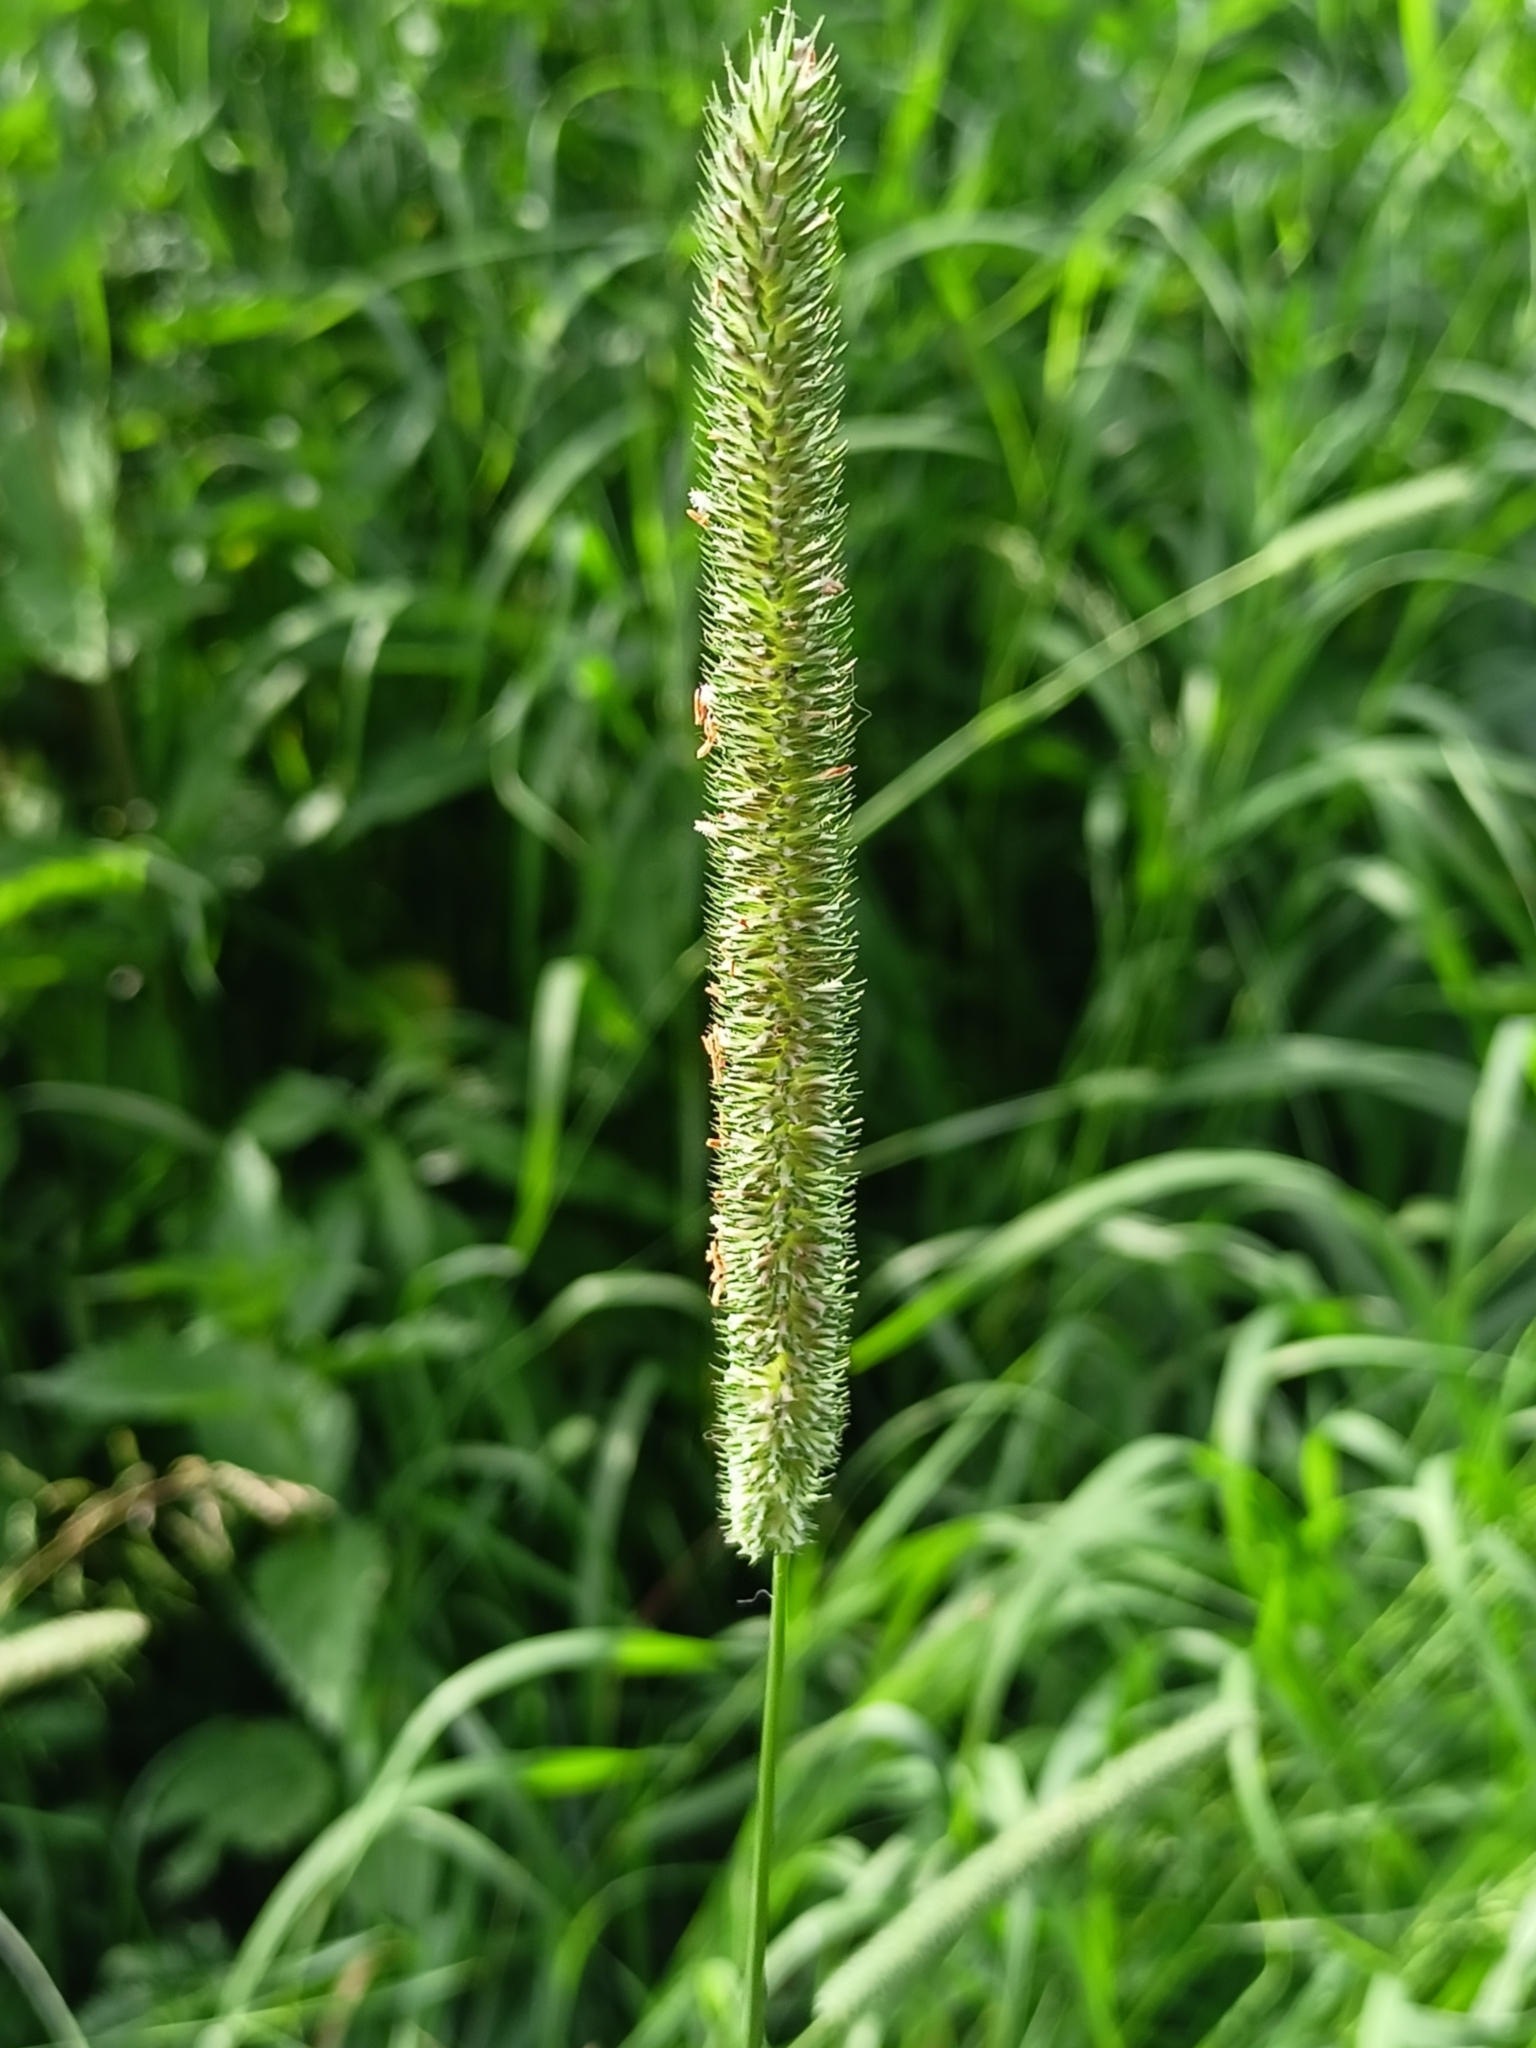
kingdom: Plantae
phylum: Tracheophyta
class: Liliopsida
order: Poales
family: Poaceae
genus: Phleum
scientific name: Phleum pratense
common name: Timothy grass
